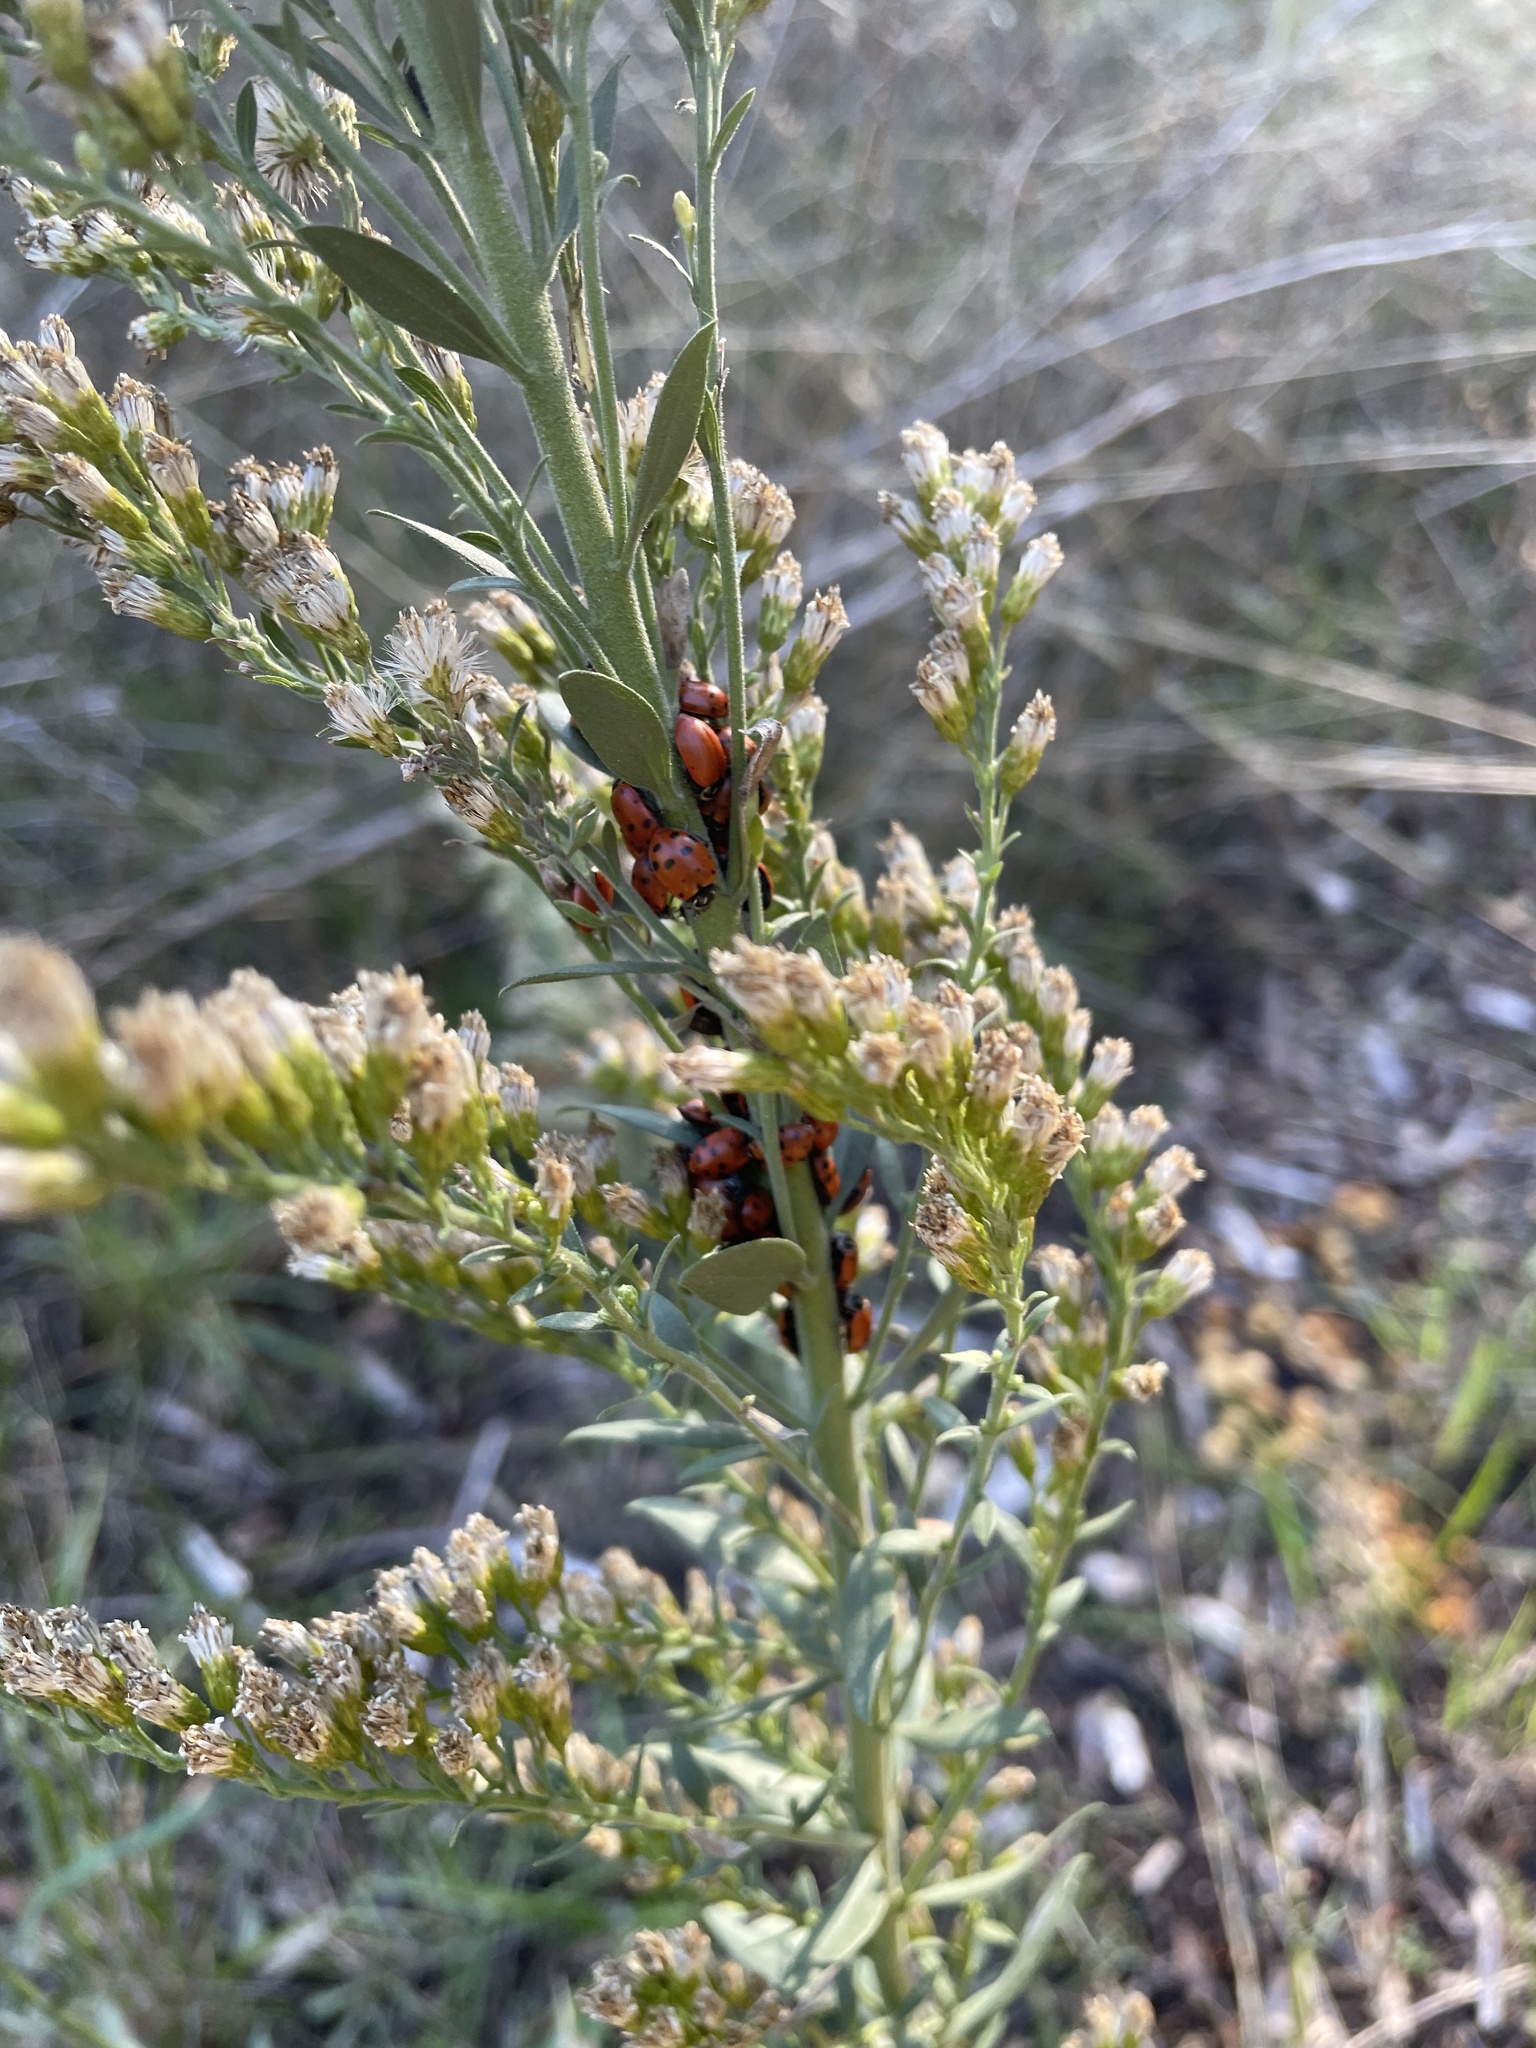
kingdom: Animalia
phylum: Arthropoda
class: Insecta
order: Coleoptera
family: Coccinellidae
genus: Hippodamia
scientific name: Hippodamia convergens
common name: Convergent lady beetle
